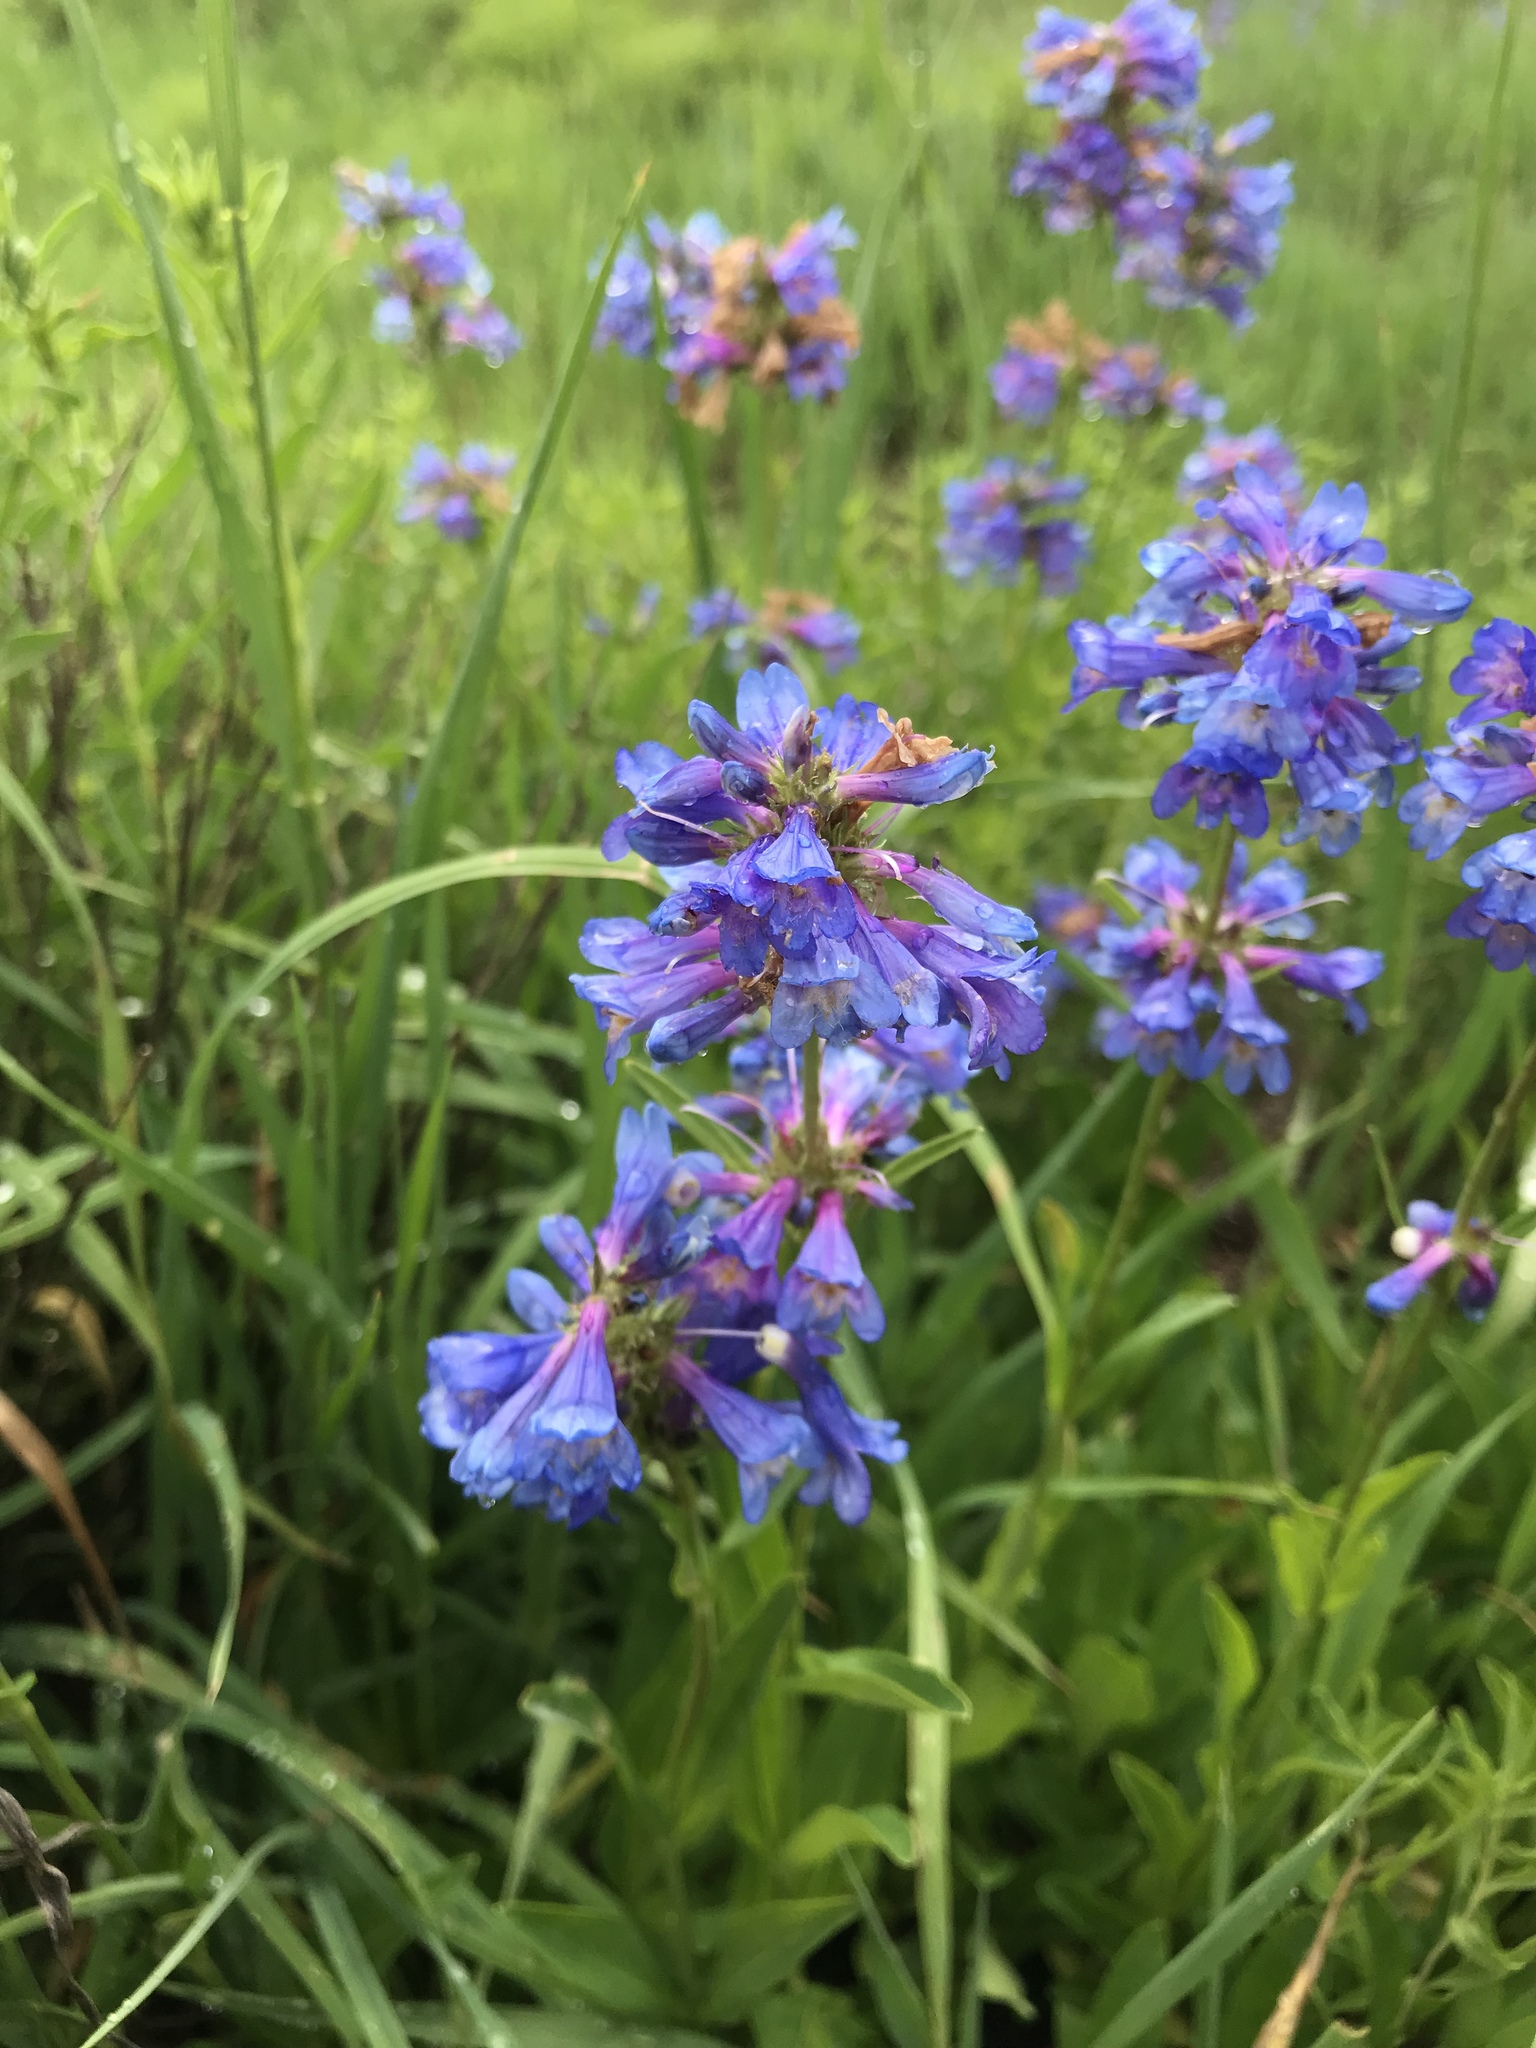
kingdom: Plantae
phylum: Tracheophyta
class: Magnoliopsida
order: Lamiales
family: Plantaginaceae
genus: Penstemon
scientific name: Penstemon procerus
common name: Small-flower penstemon
